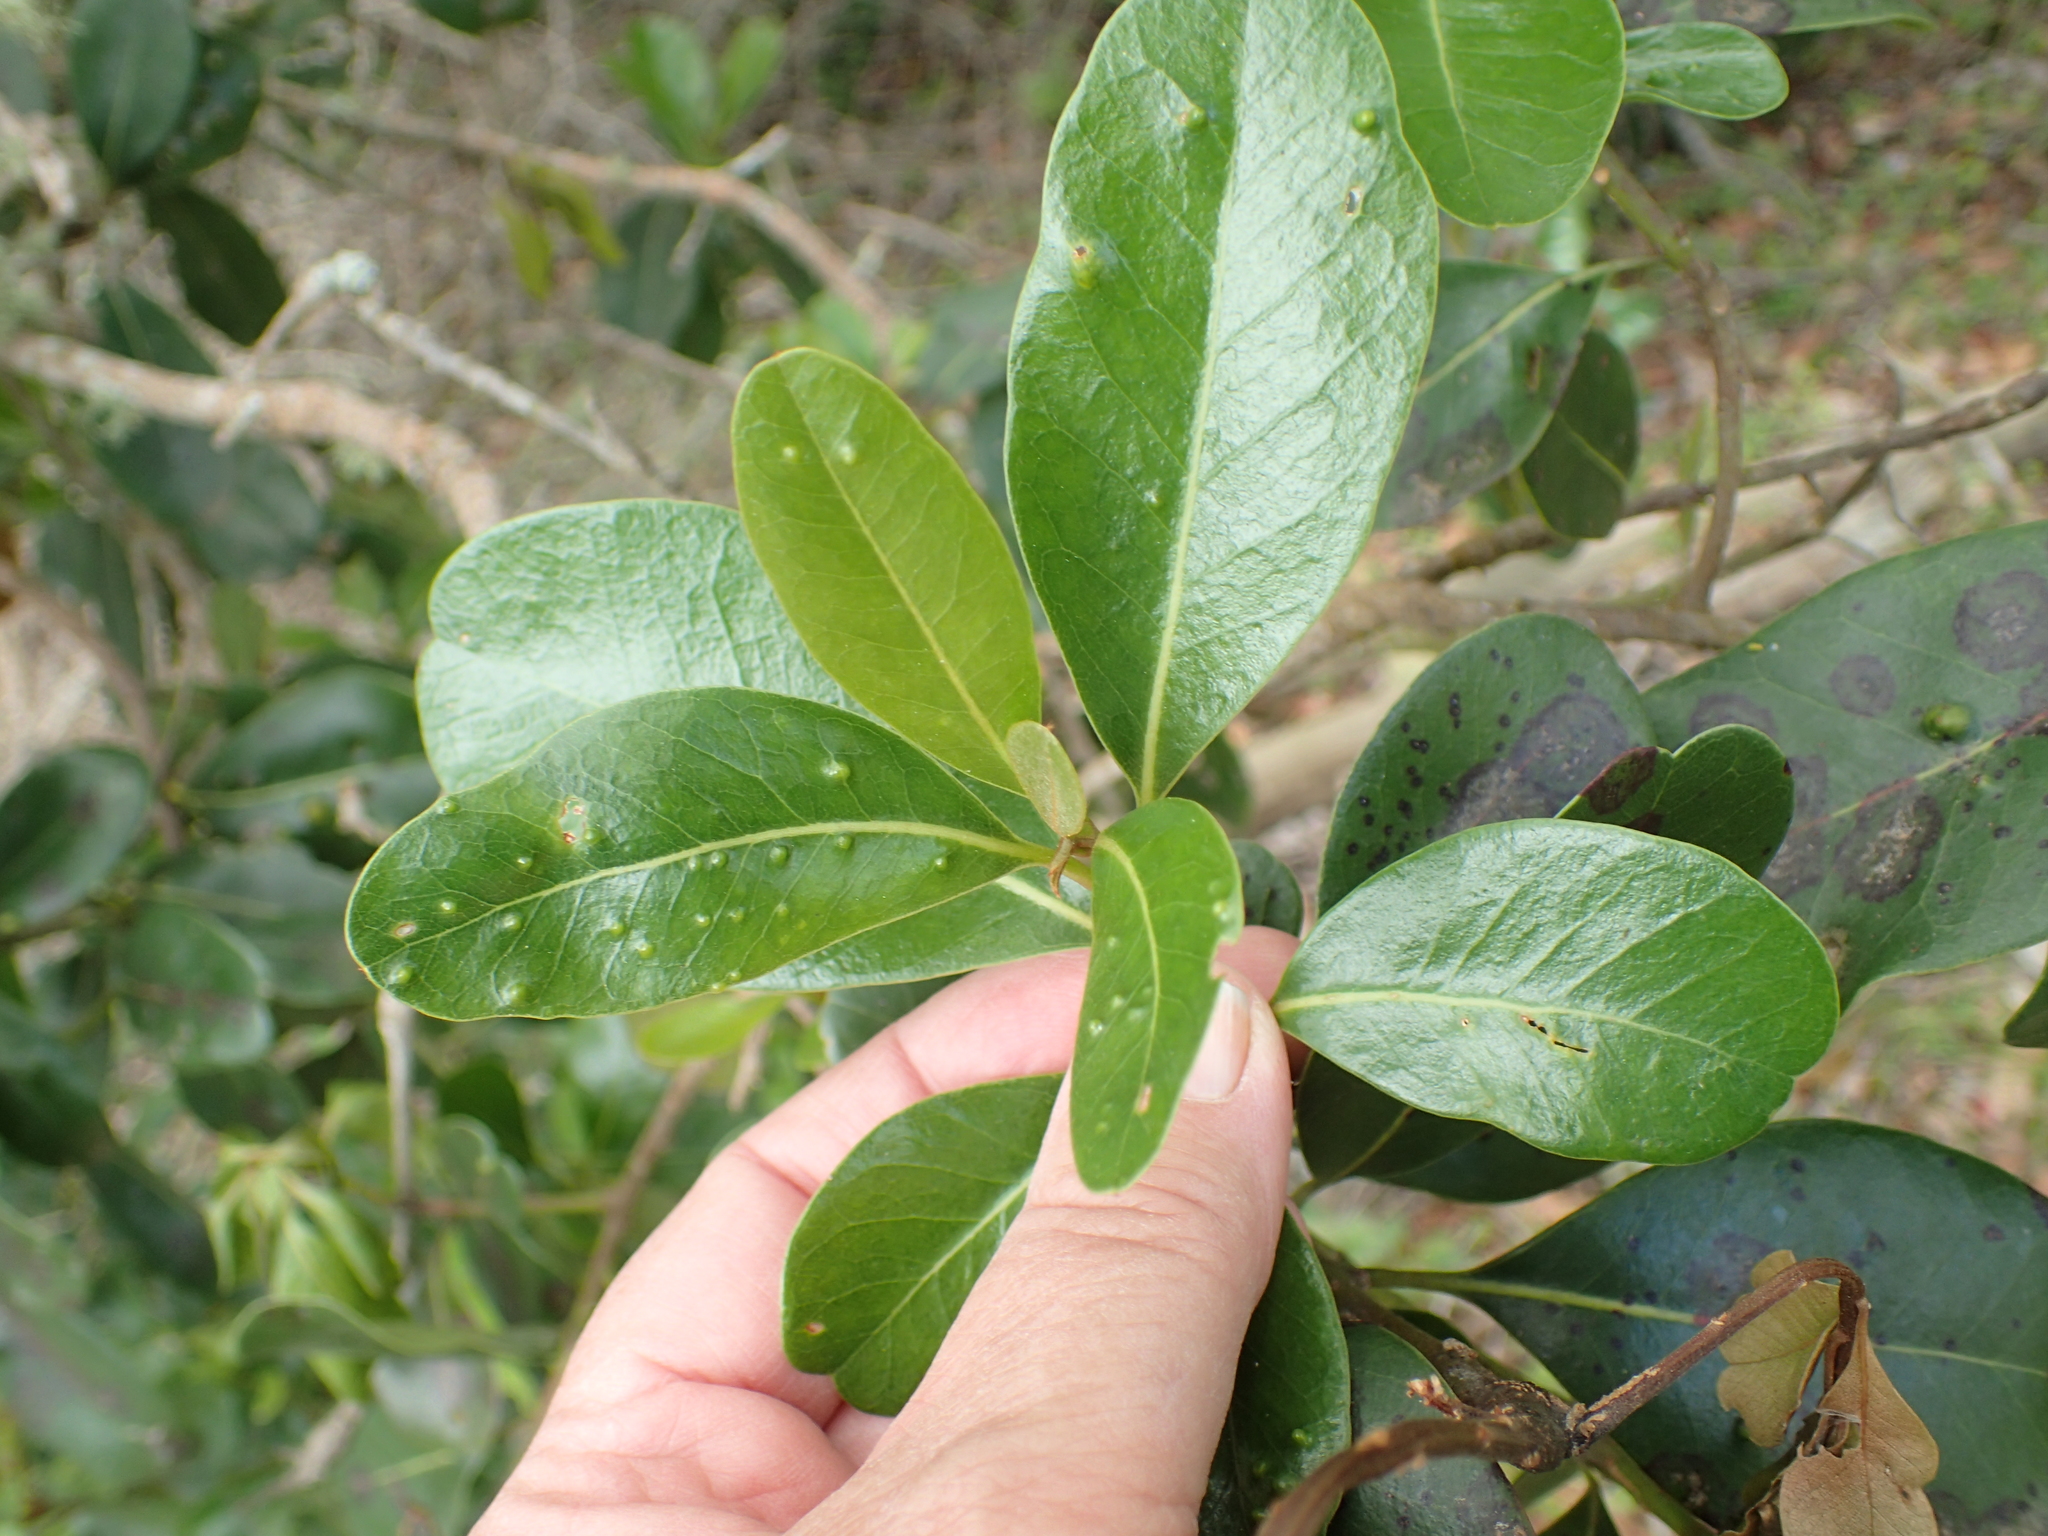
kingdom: Plantae
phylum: Tracheophyta
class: Magnoliopsida
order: Ericales
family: Sapotaceae
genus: Sideroxylon
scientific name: Sideroxylon inerme
